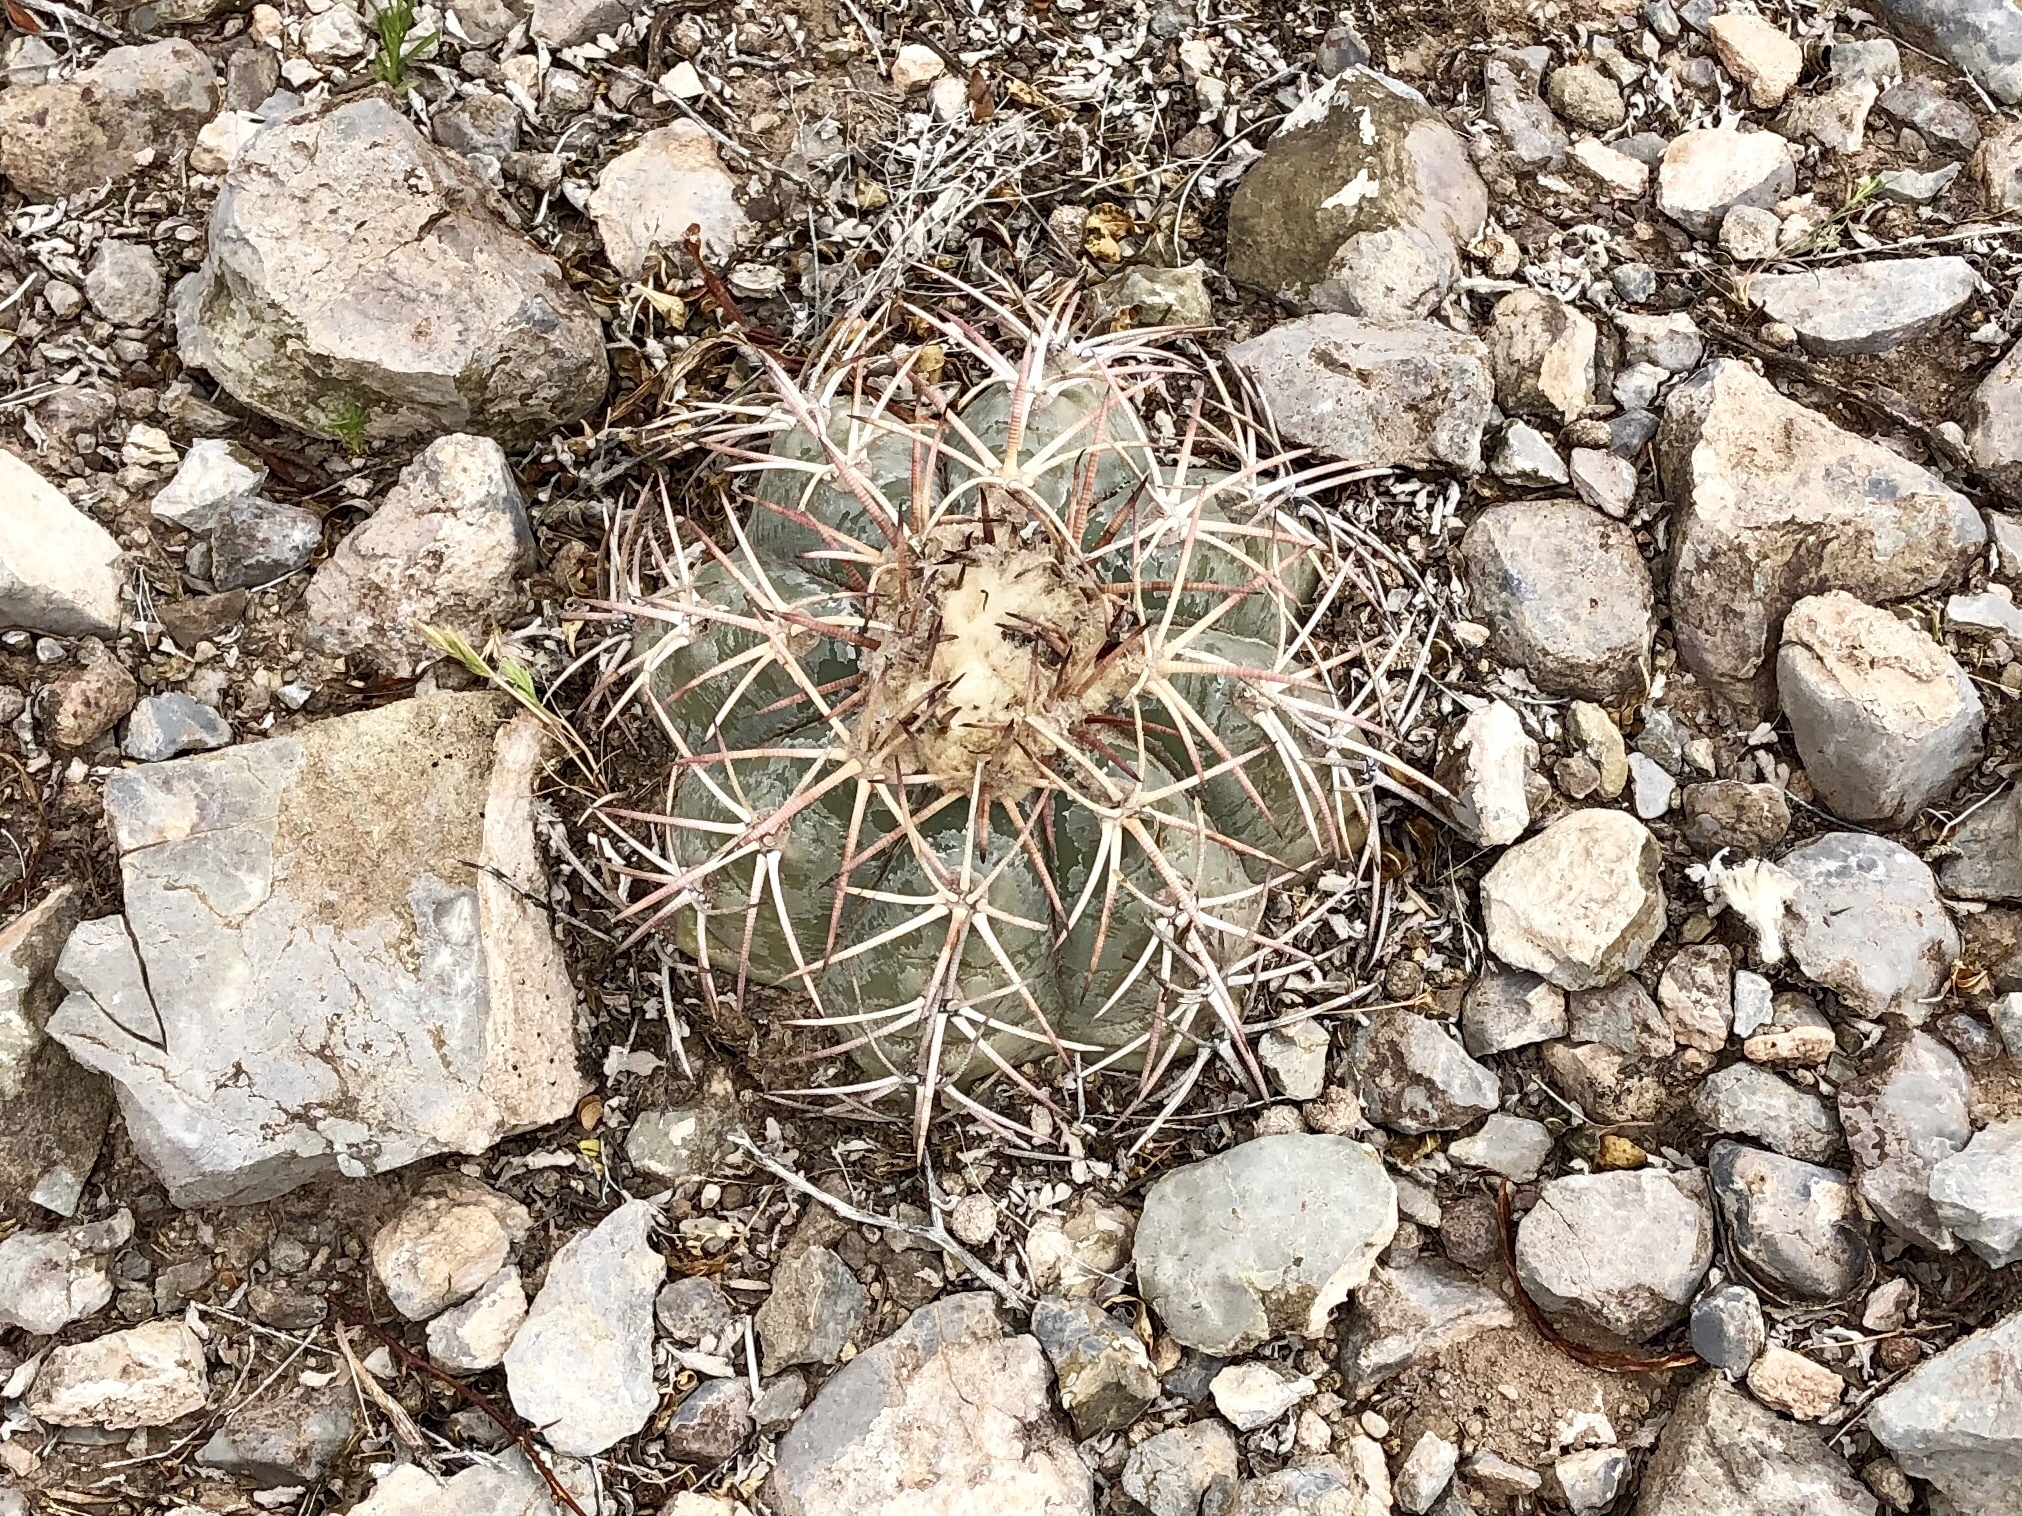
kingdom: Plantae
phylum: Tracheophyta
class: Magnoliopsida
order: Caryophyllales
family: Cactaceae
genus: Echinocactus
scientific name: Echinocactus horizonthalonius
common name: Devilshead
